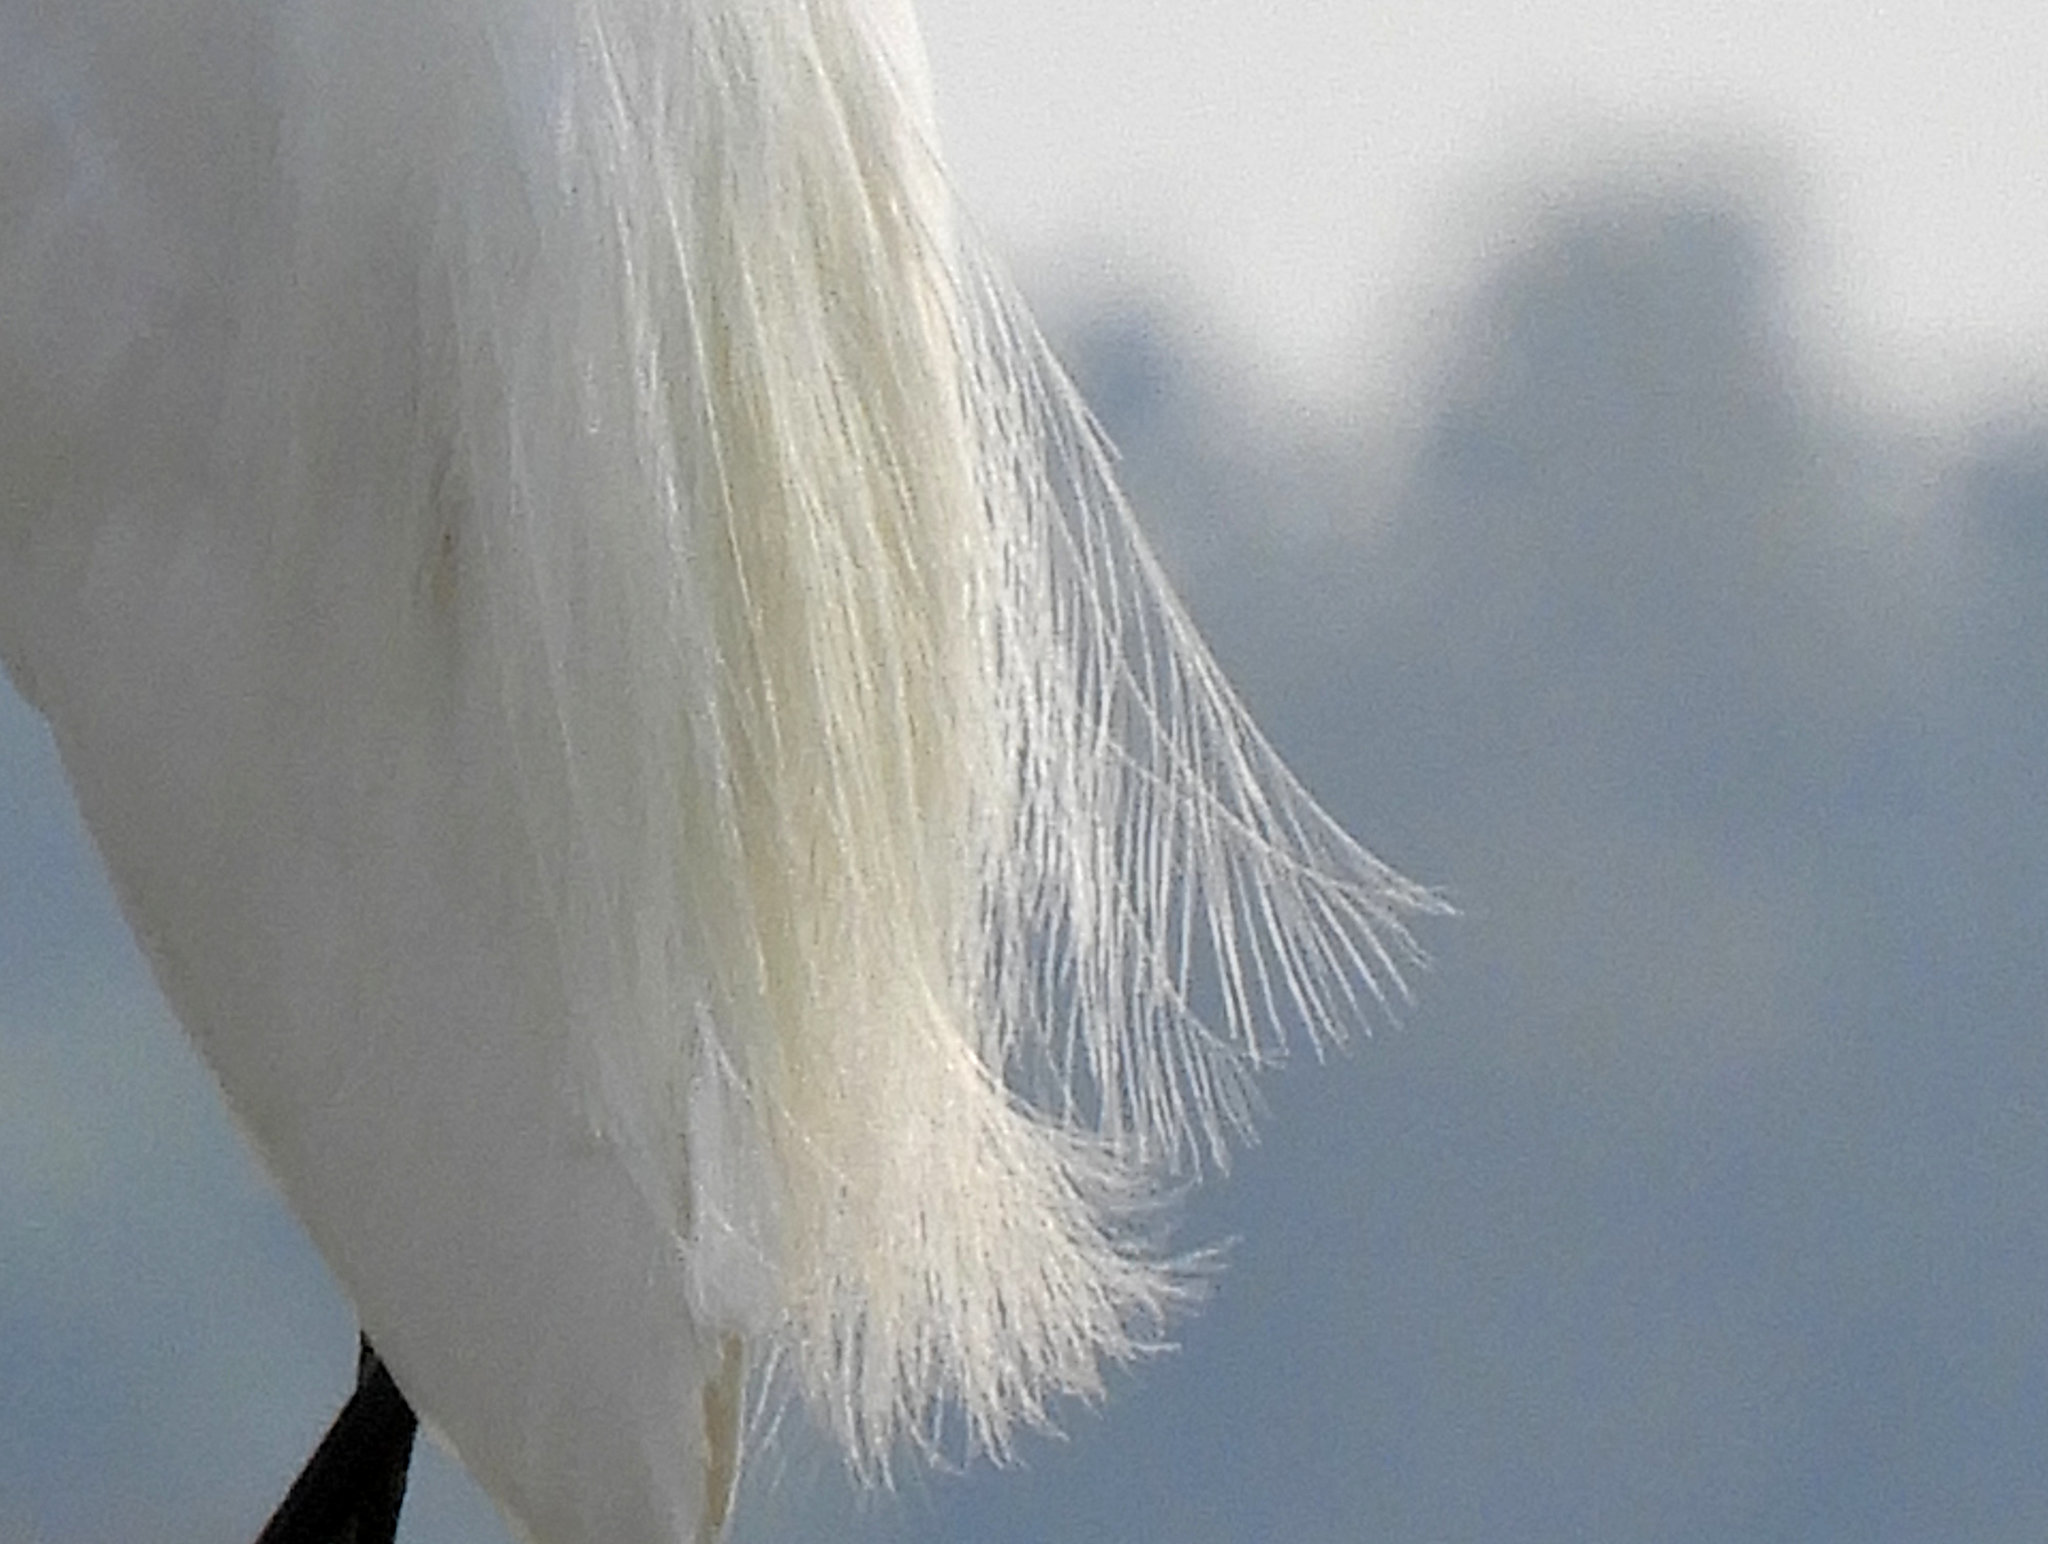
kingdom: Animalia
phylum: Chordata
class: Aves
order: Pelecaniformes
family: Ardeidae
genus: Ardea
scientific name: Ardea alba
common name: Great egret
